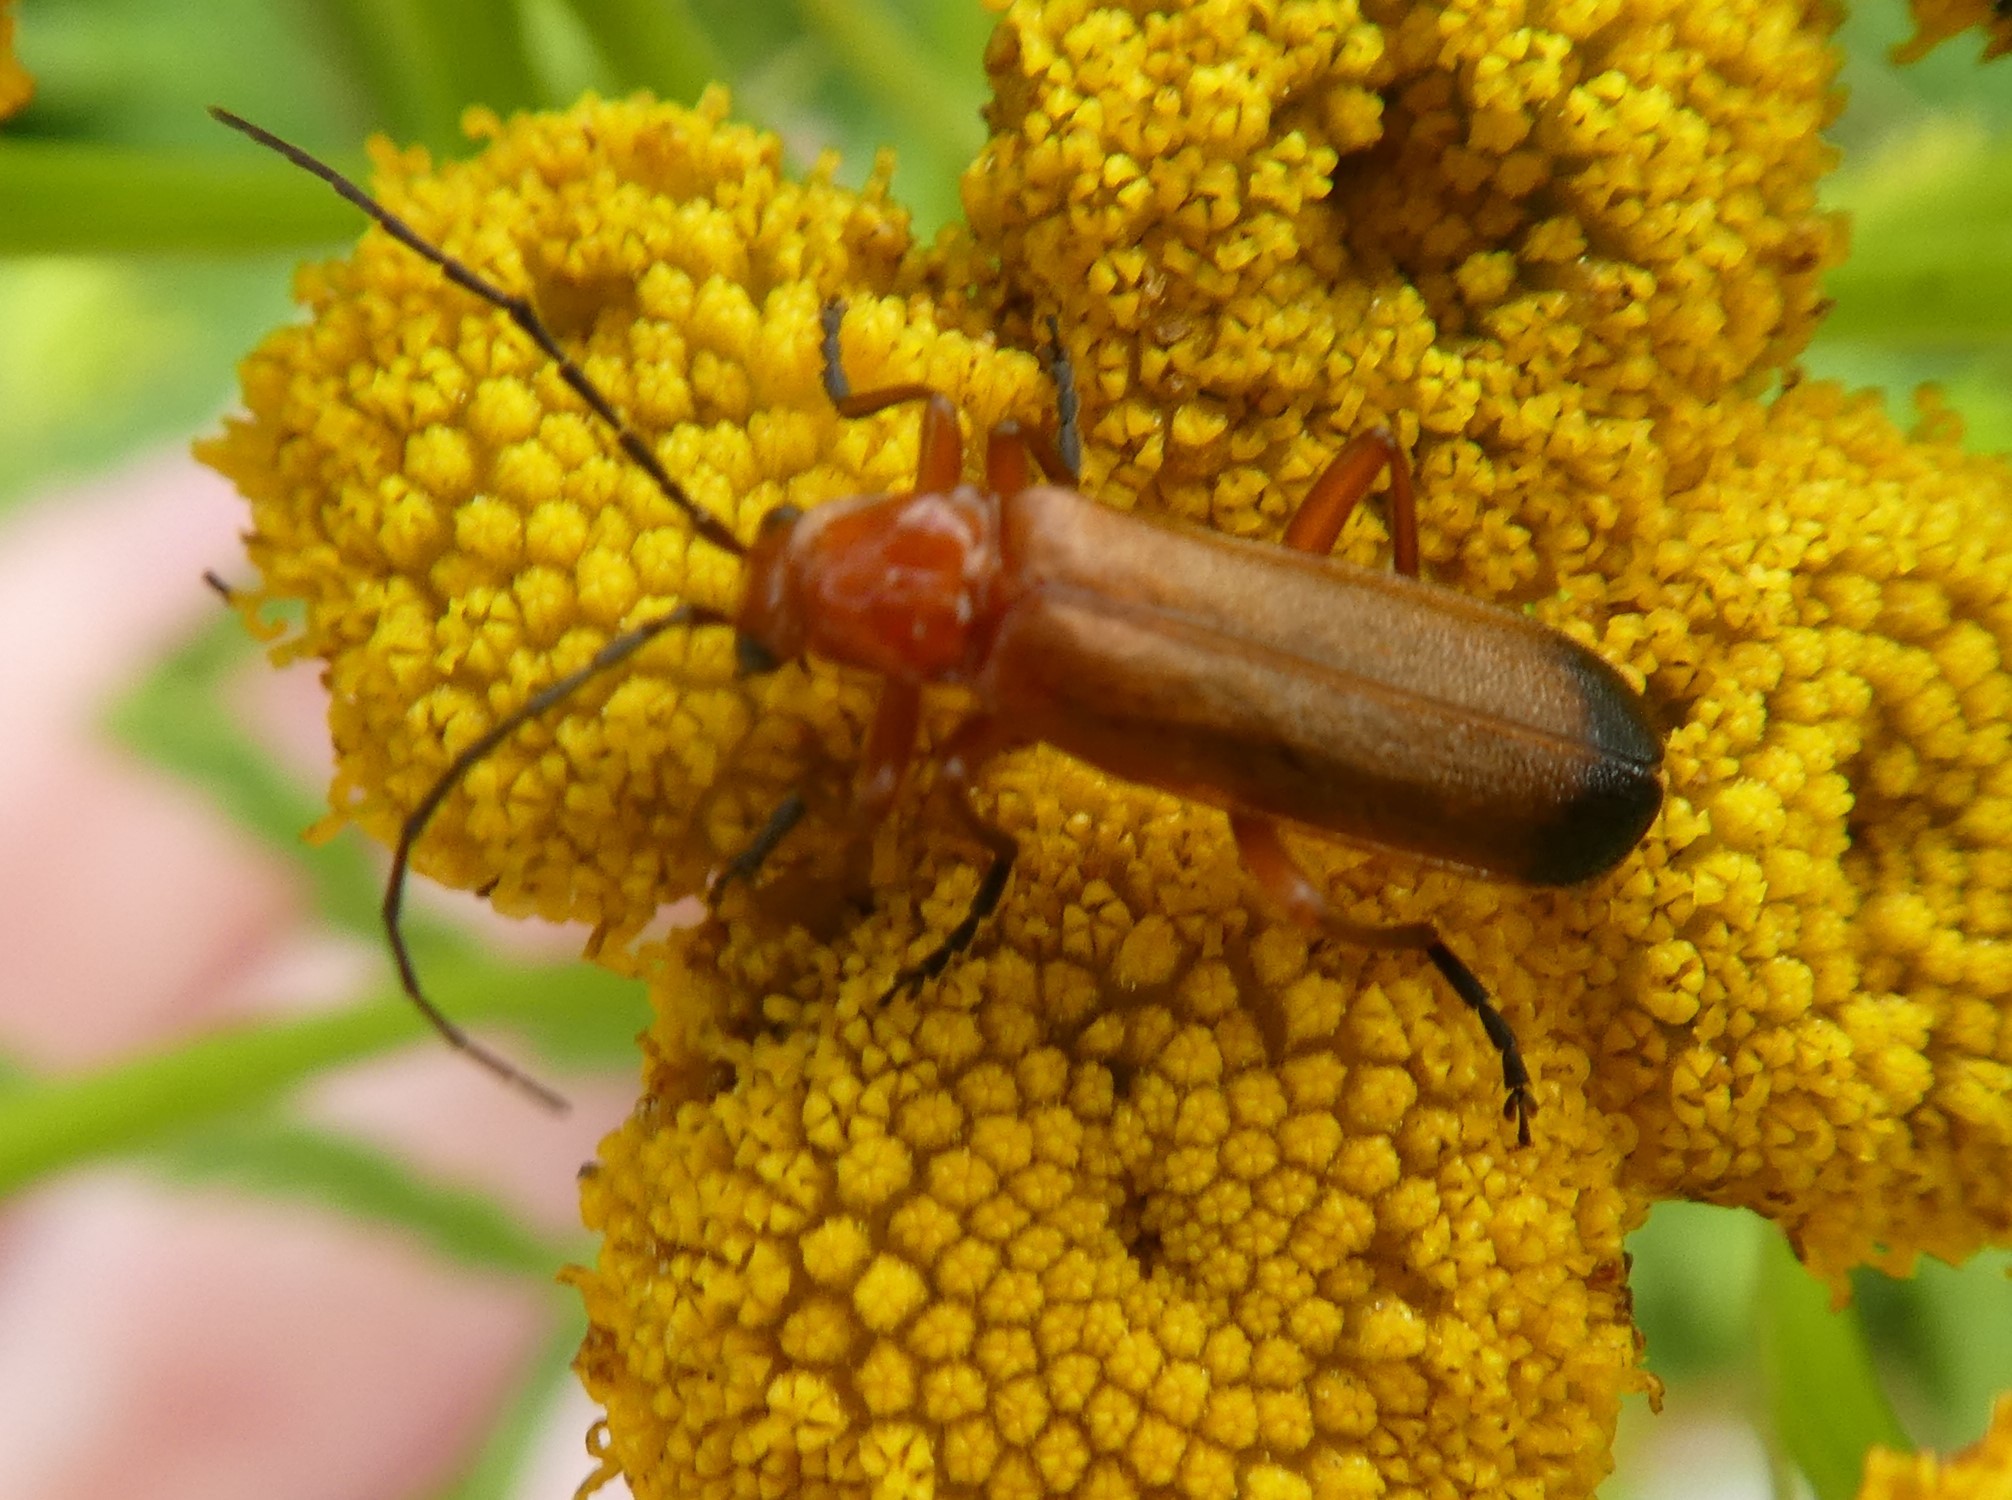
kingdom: Animalia
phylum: Arthropoda
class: Insecta
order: Coleoptera
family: Cantharidae
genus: Rhagonycha
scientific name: Rhagonycha fulva
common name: Common red soldier beetle
